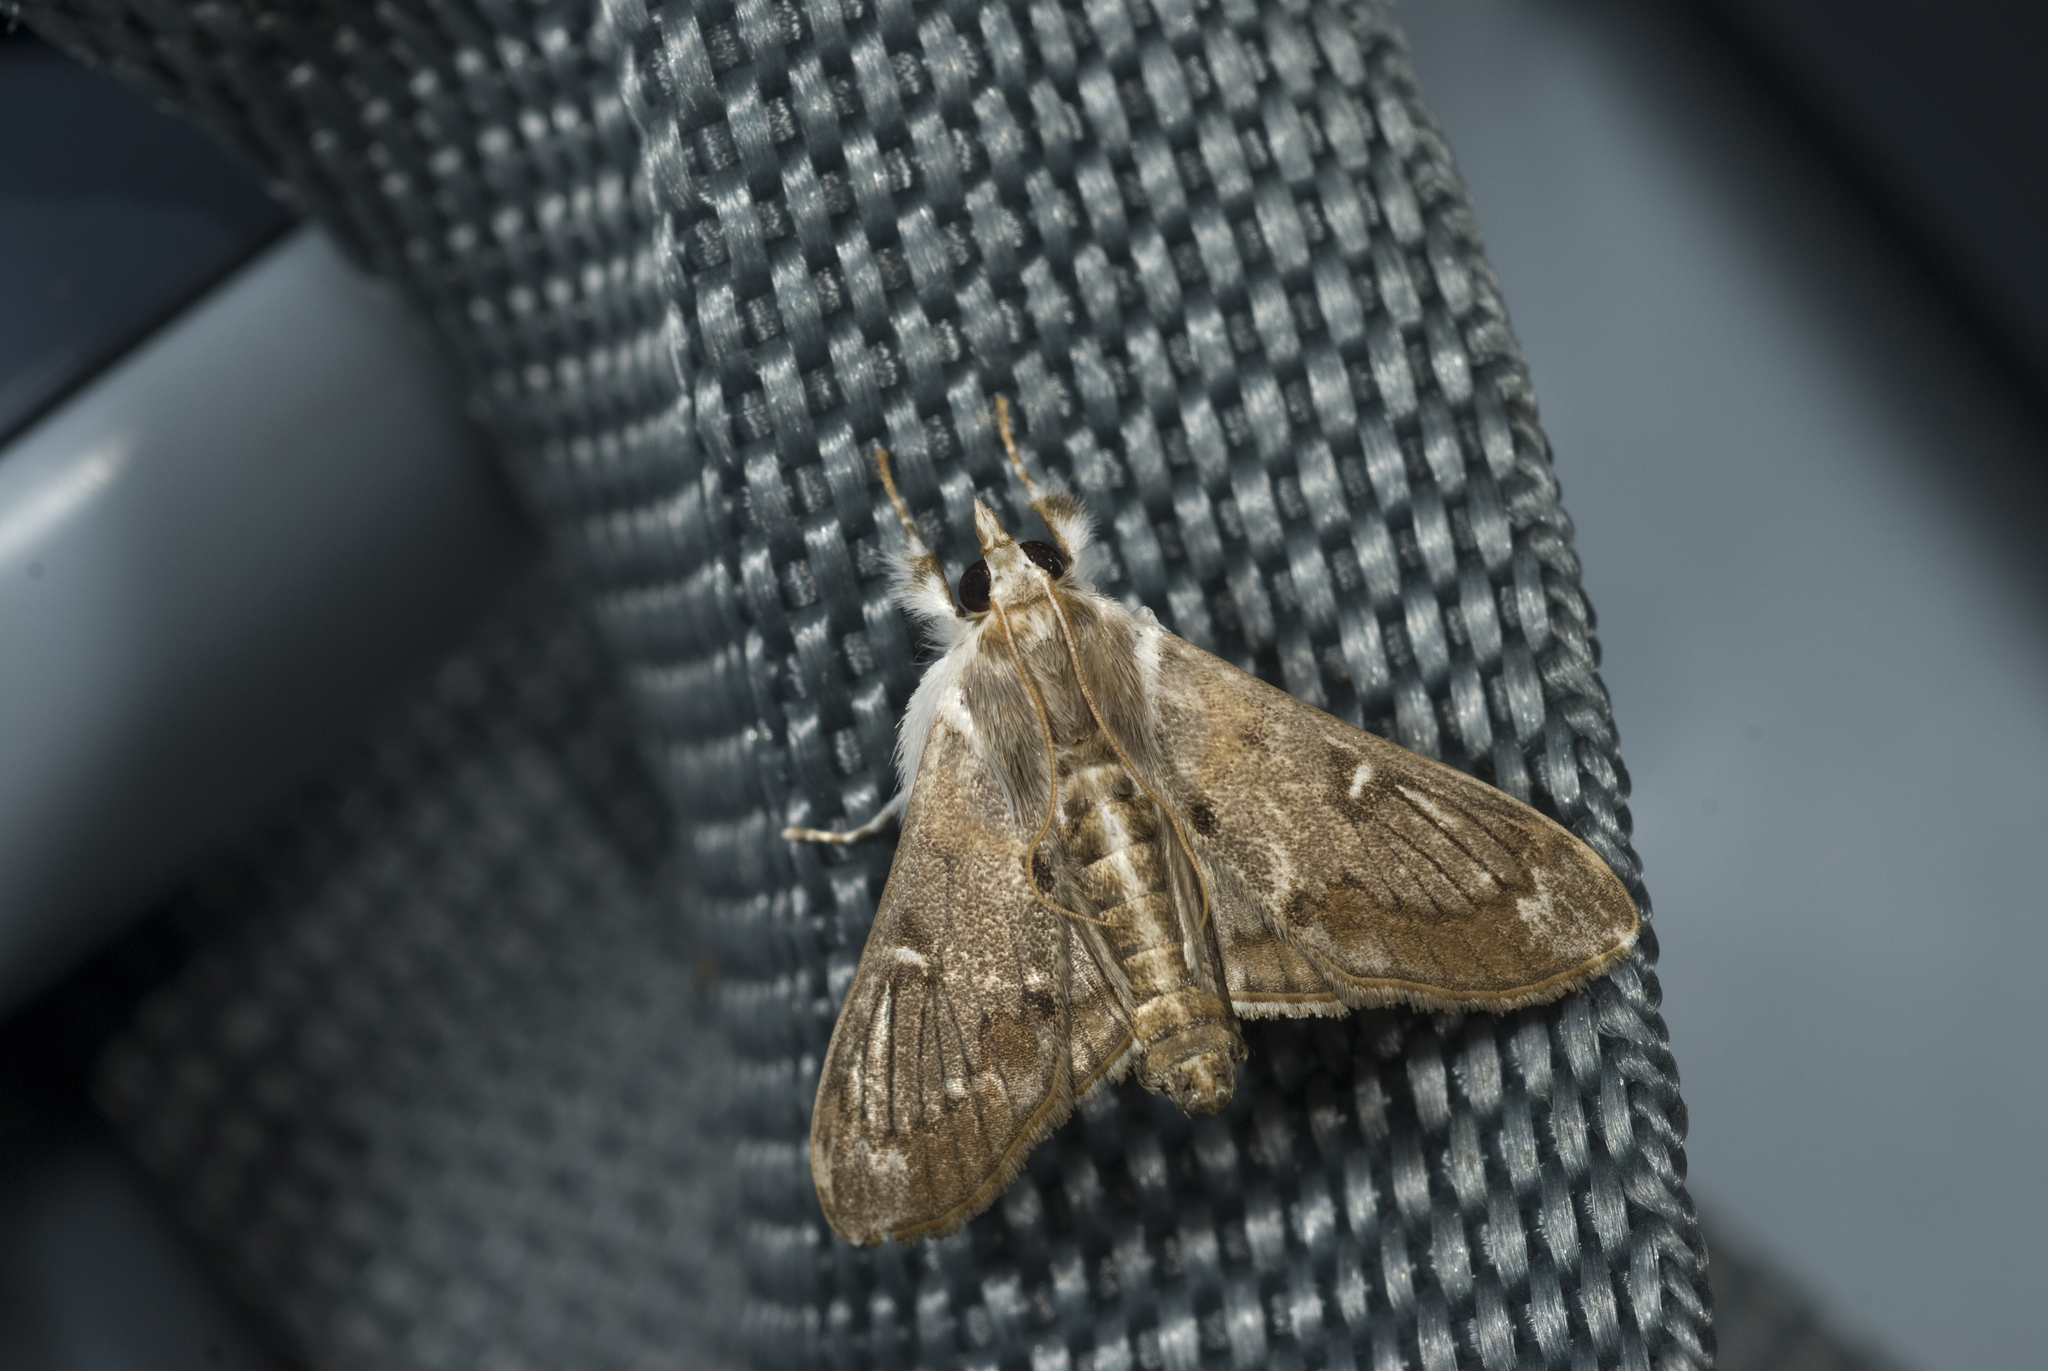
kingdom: Animalia
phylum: Arthropoda
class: Insecta
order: Lepidoptera
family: Crambidae
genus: Cirrhochrista
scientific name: Cirrhochrista spissalis
